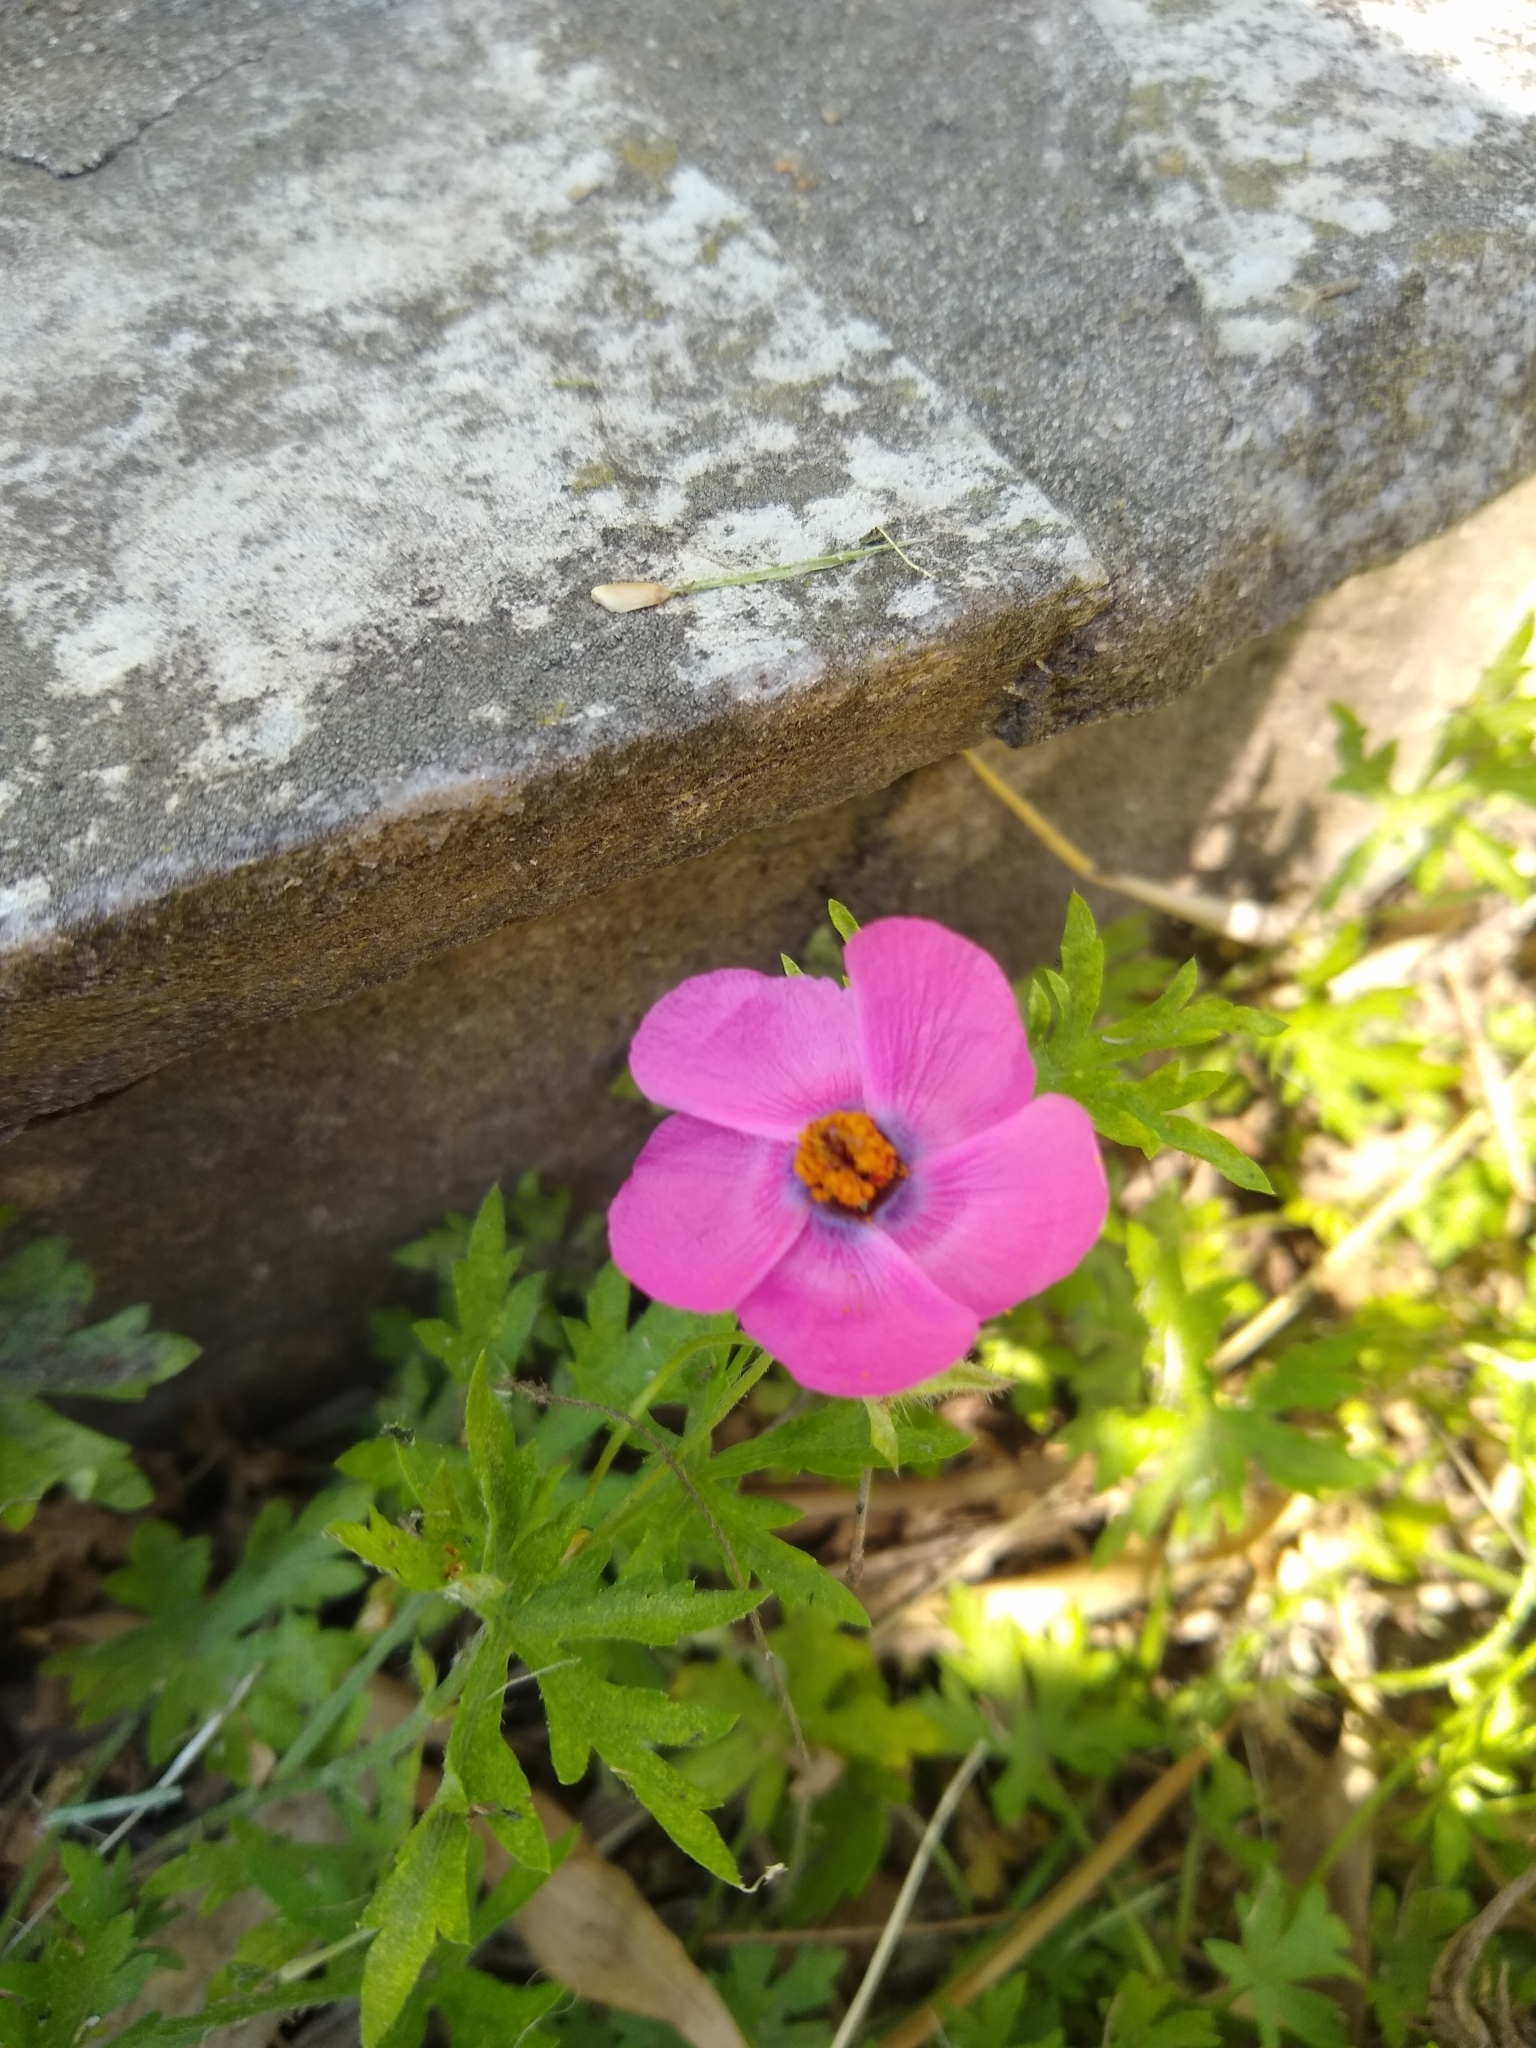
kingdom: Plantae
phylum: Tracheophyta
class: Magnoliopsida
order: Malvales
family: Malvaceae
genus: Modiolastrum
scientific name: Modiolastrum gilliesii
